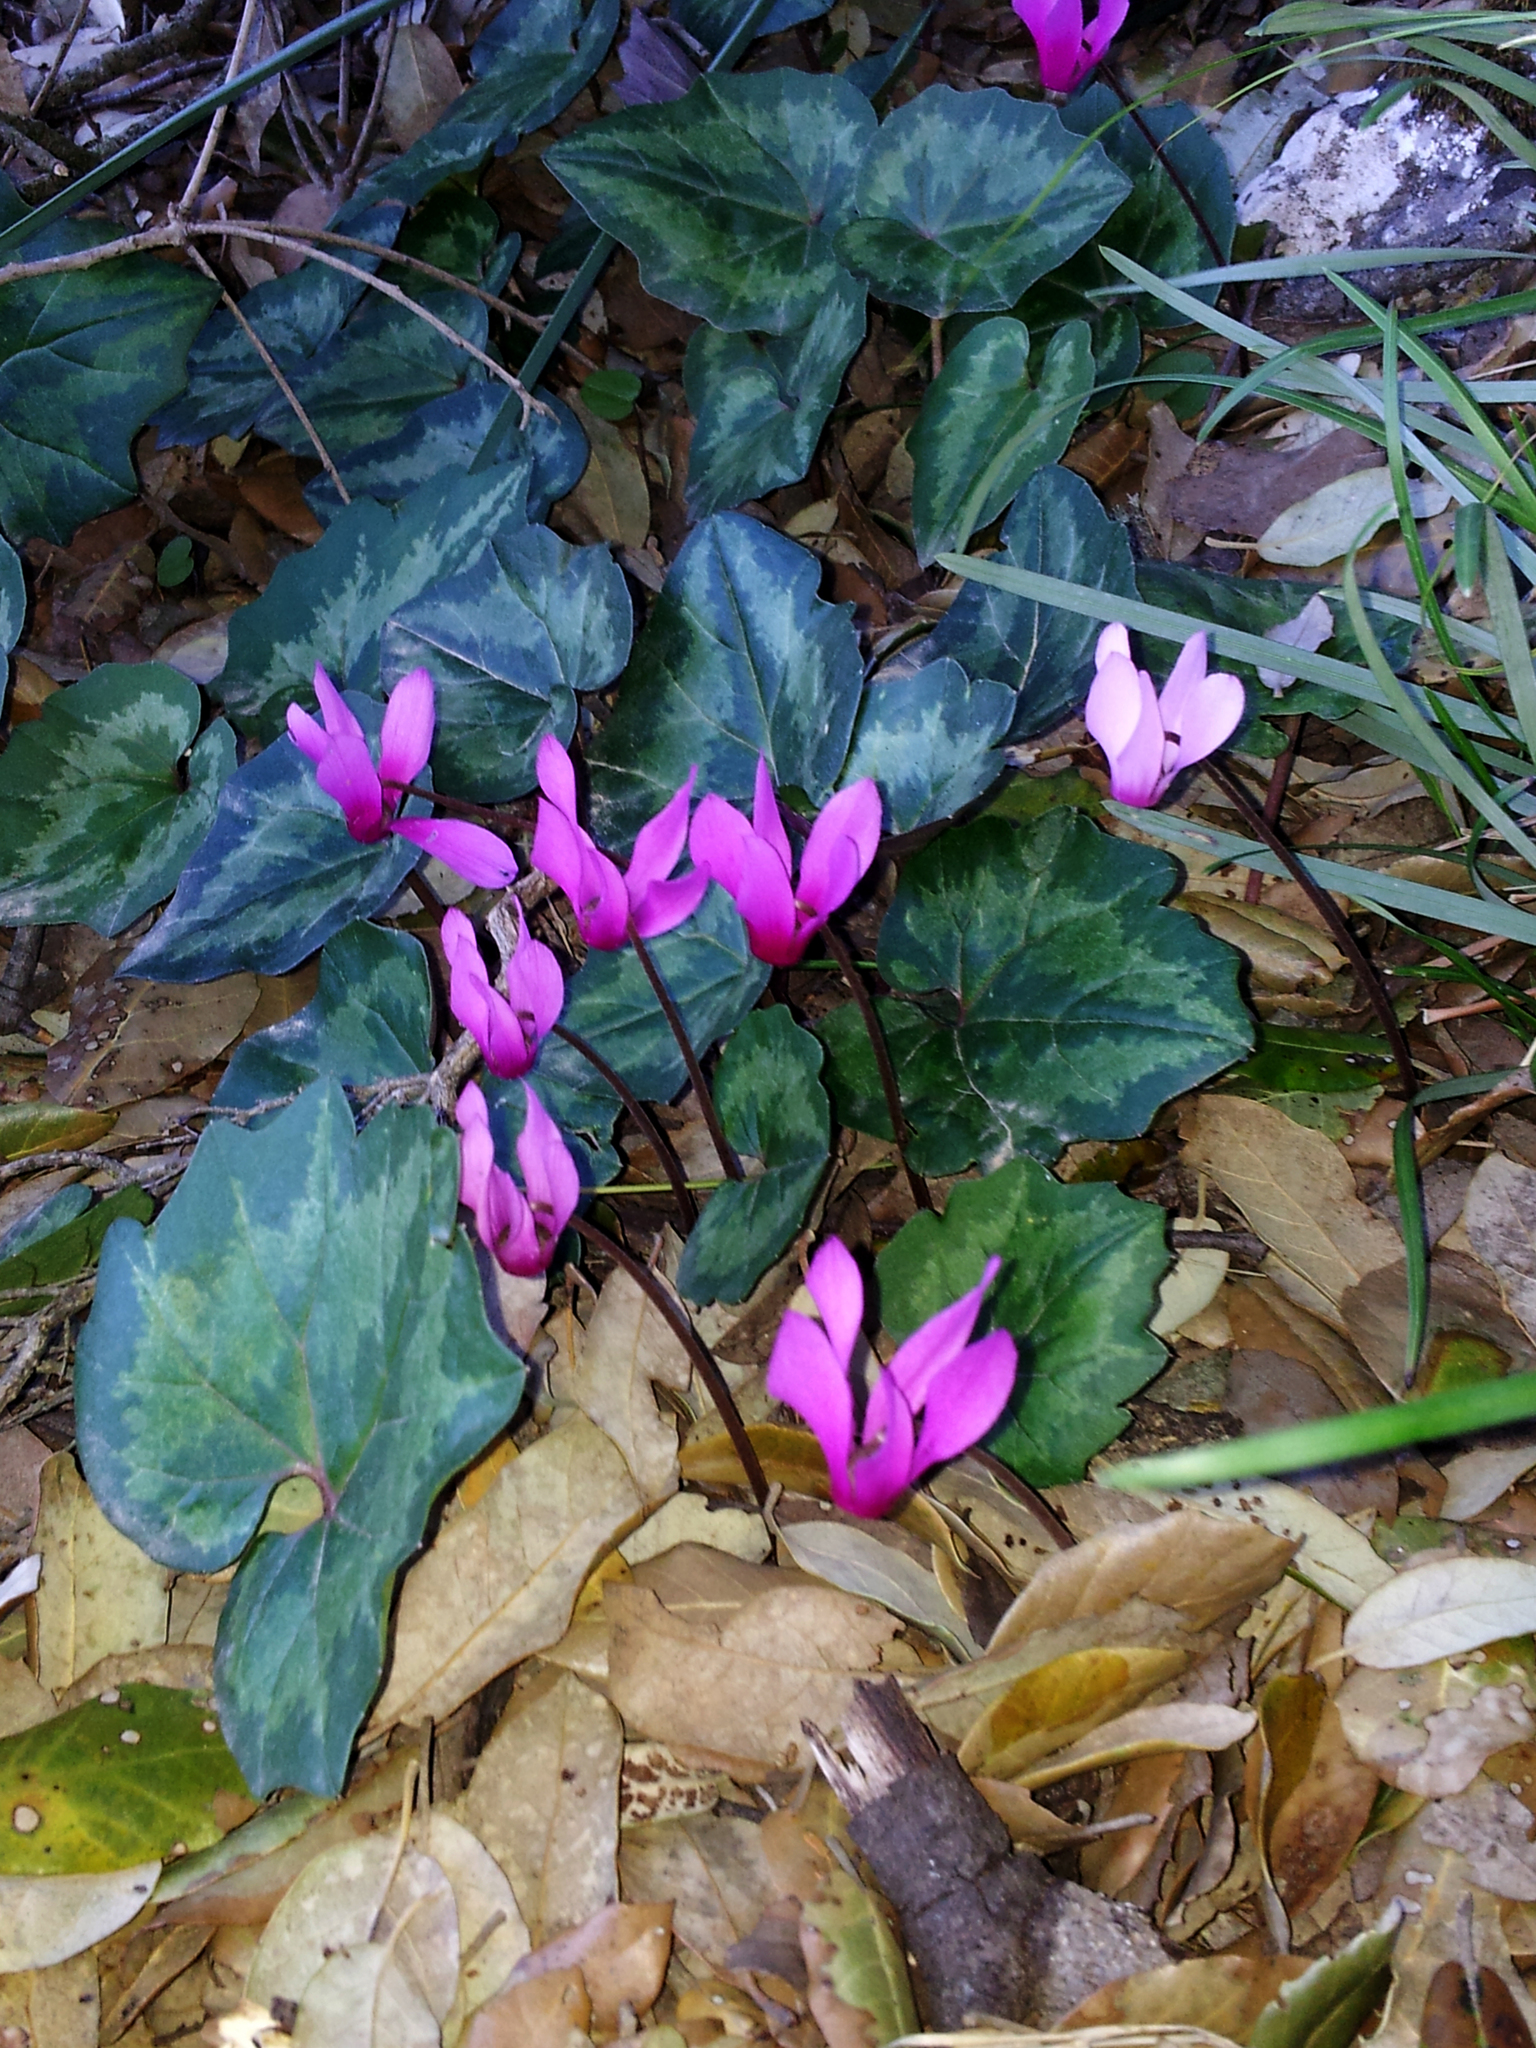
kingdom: Plantae
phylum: Tracheophyta
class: Magnoliopsida
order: Ericales
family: Primulaceae
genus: Cyclamen
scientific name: Cyclamen repandum
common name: Spring sowbread
